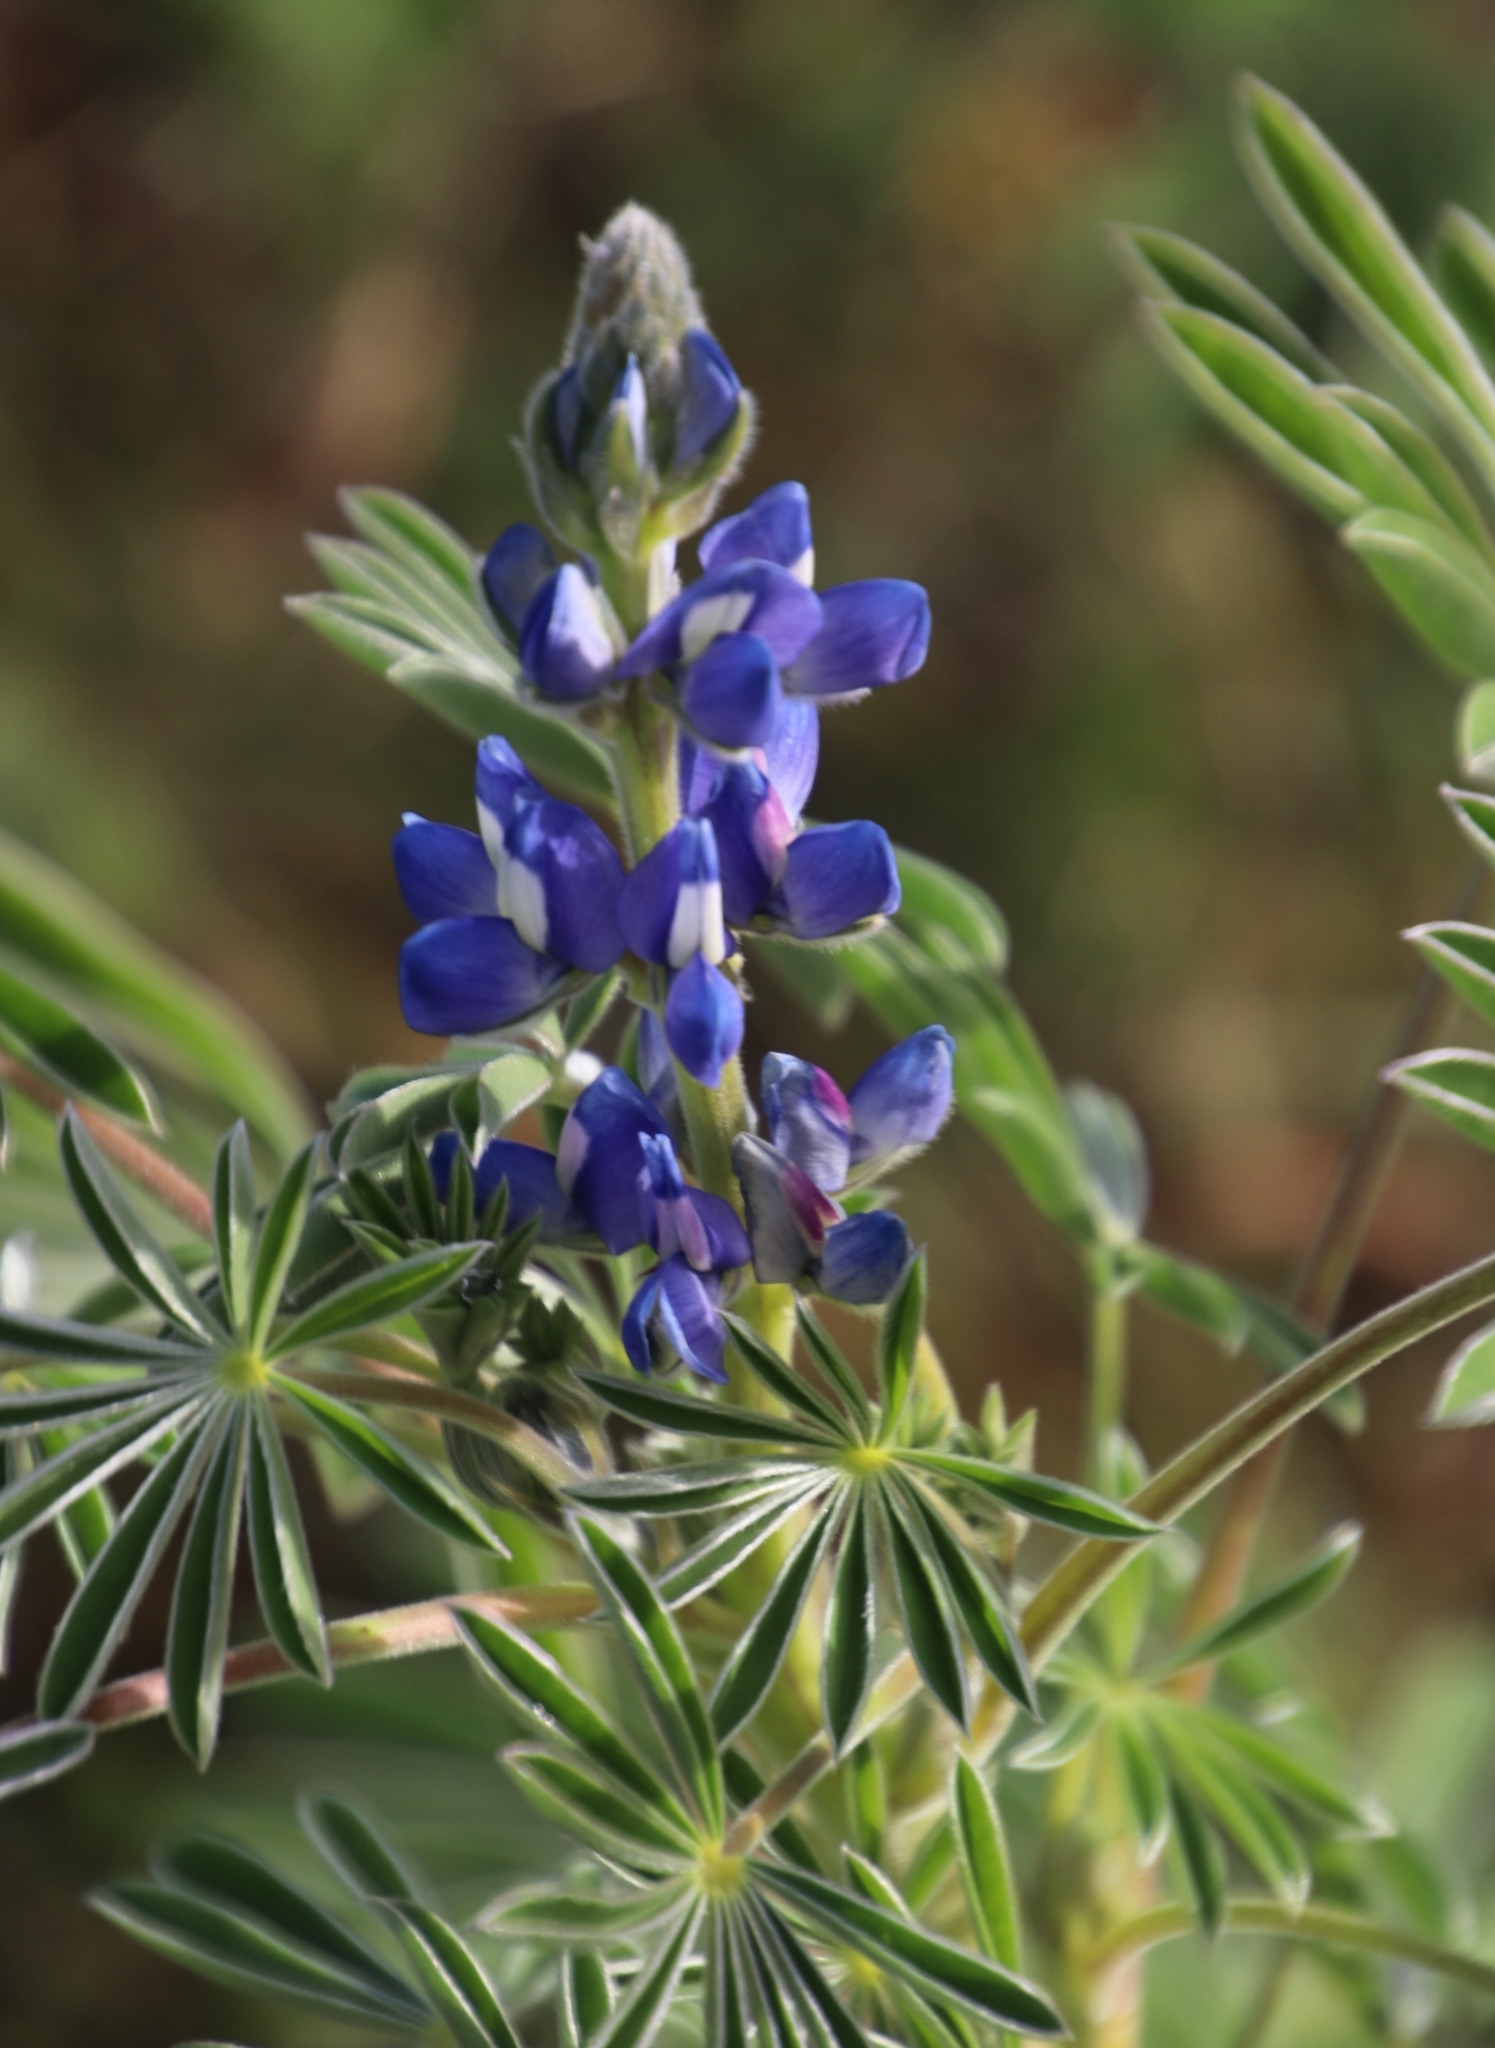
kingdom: Plantae
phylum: Tracheophyta
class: Magnoliopsida
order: Fabales
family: Fabaceae
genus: Lupinus
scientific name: Lupinus cosentinii
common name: Hairy blue lupin
